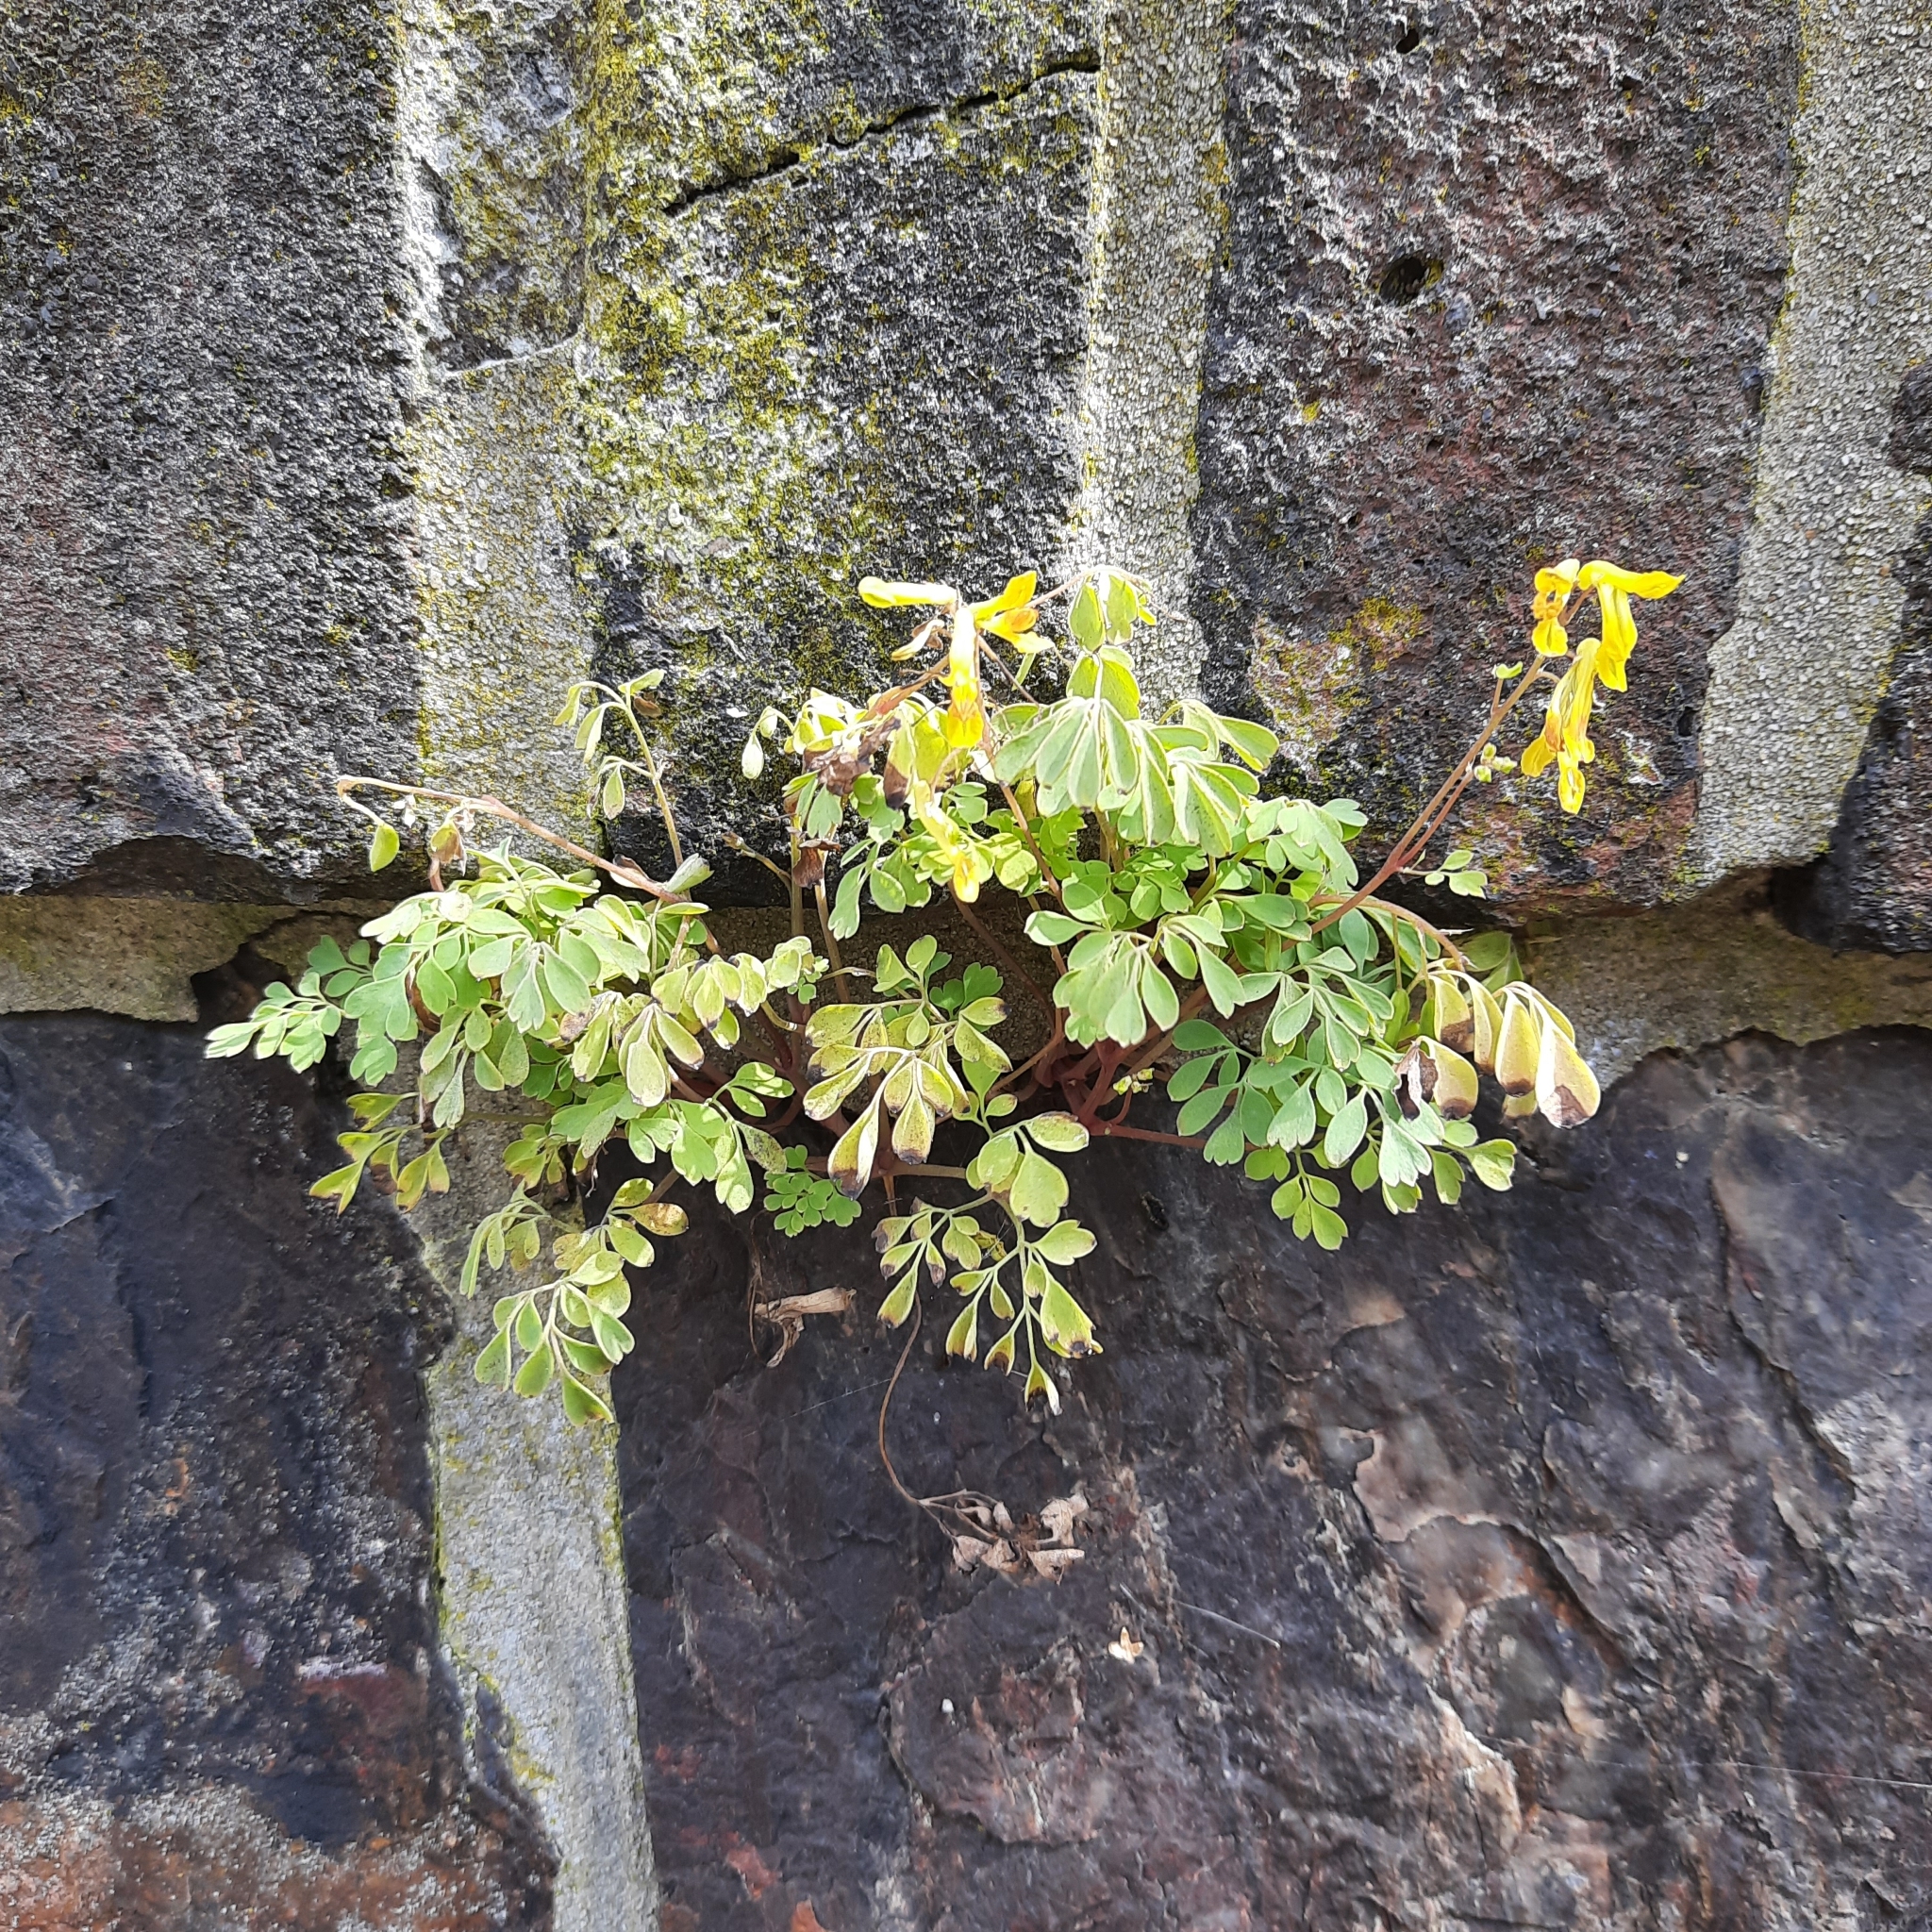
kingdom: Plantae
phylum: Tracheophyta
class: Magnoliopsida
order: Ranunculales
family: Papaveraceae
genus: Pseudofumaria
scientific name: Pseudofumaria lutea
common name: Yellow corydalis
